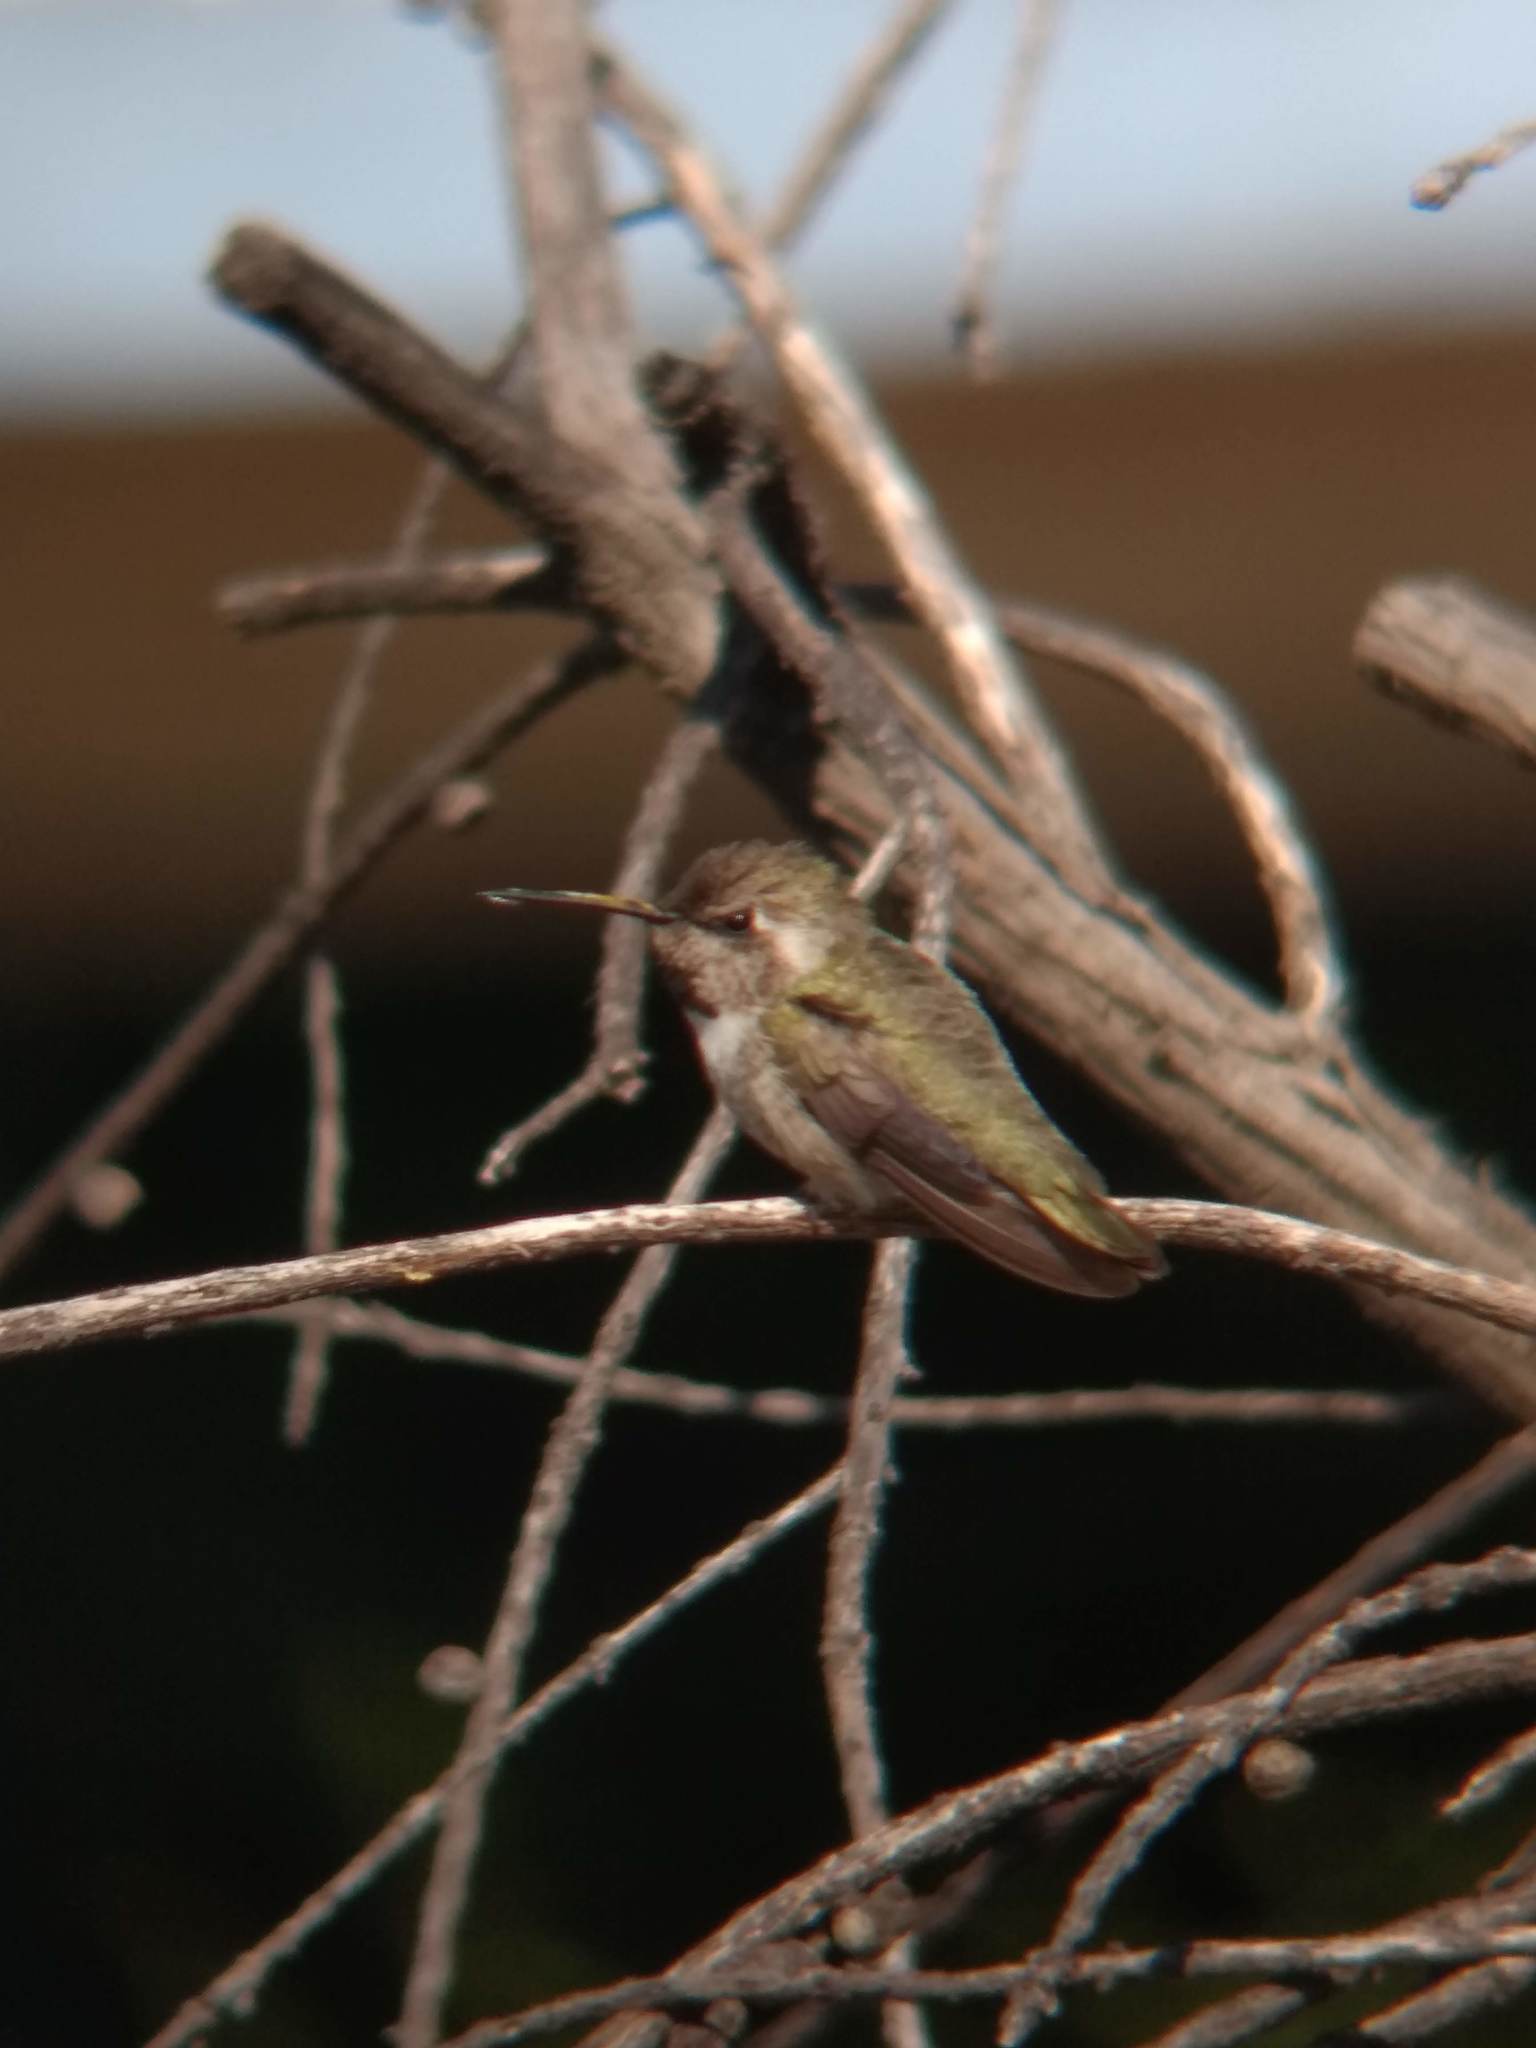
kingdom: Animalia
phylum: Chordata
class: Aves
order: Apodiformes
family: Trochilidae
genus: Calypte
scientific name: Calypte costae
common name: Costa's hummingbird
